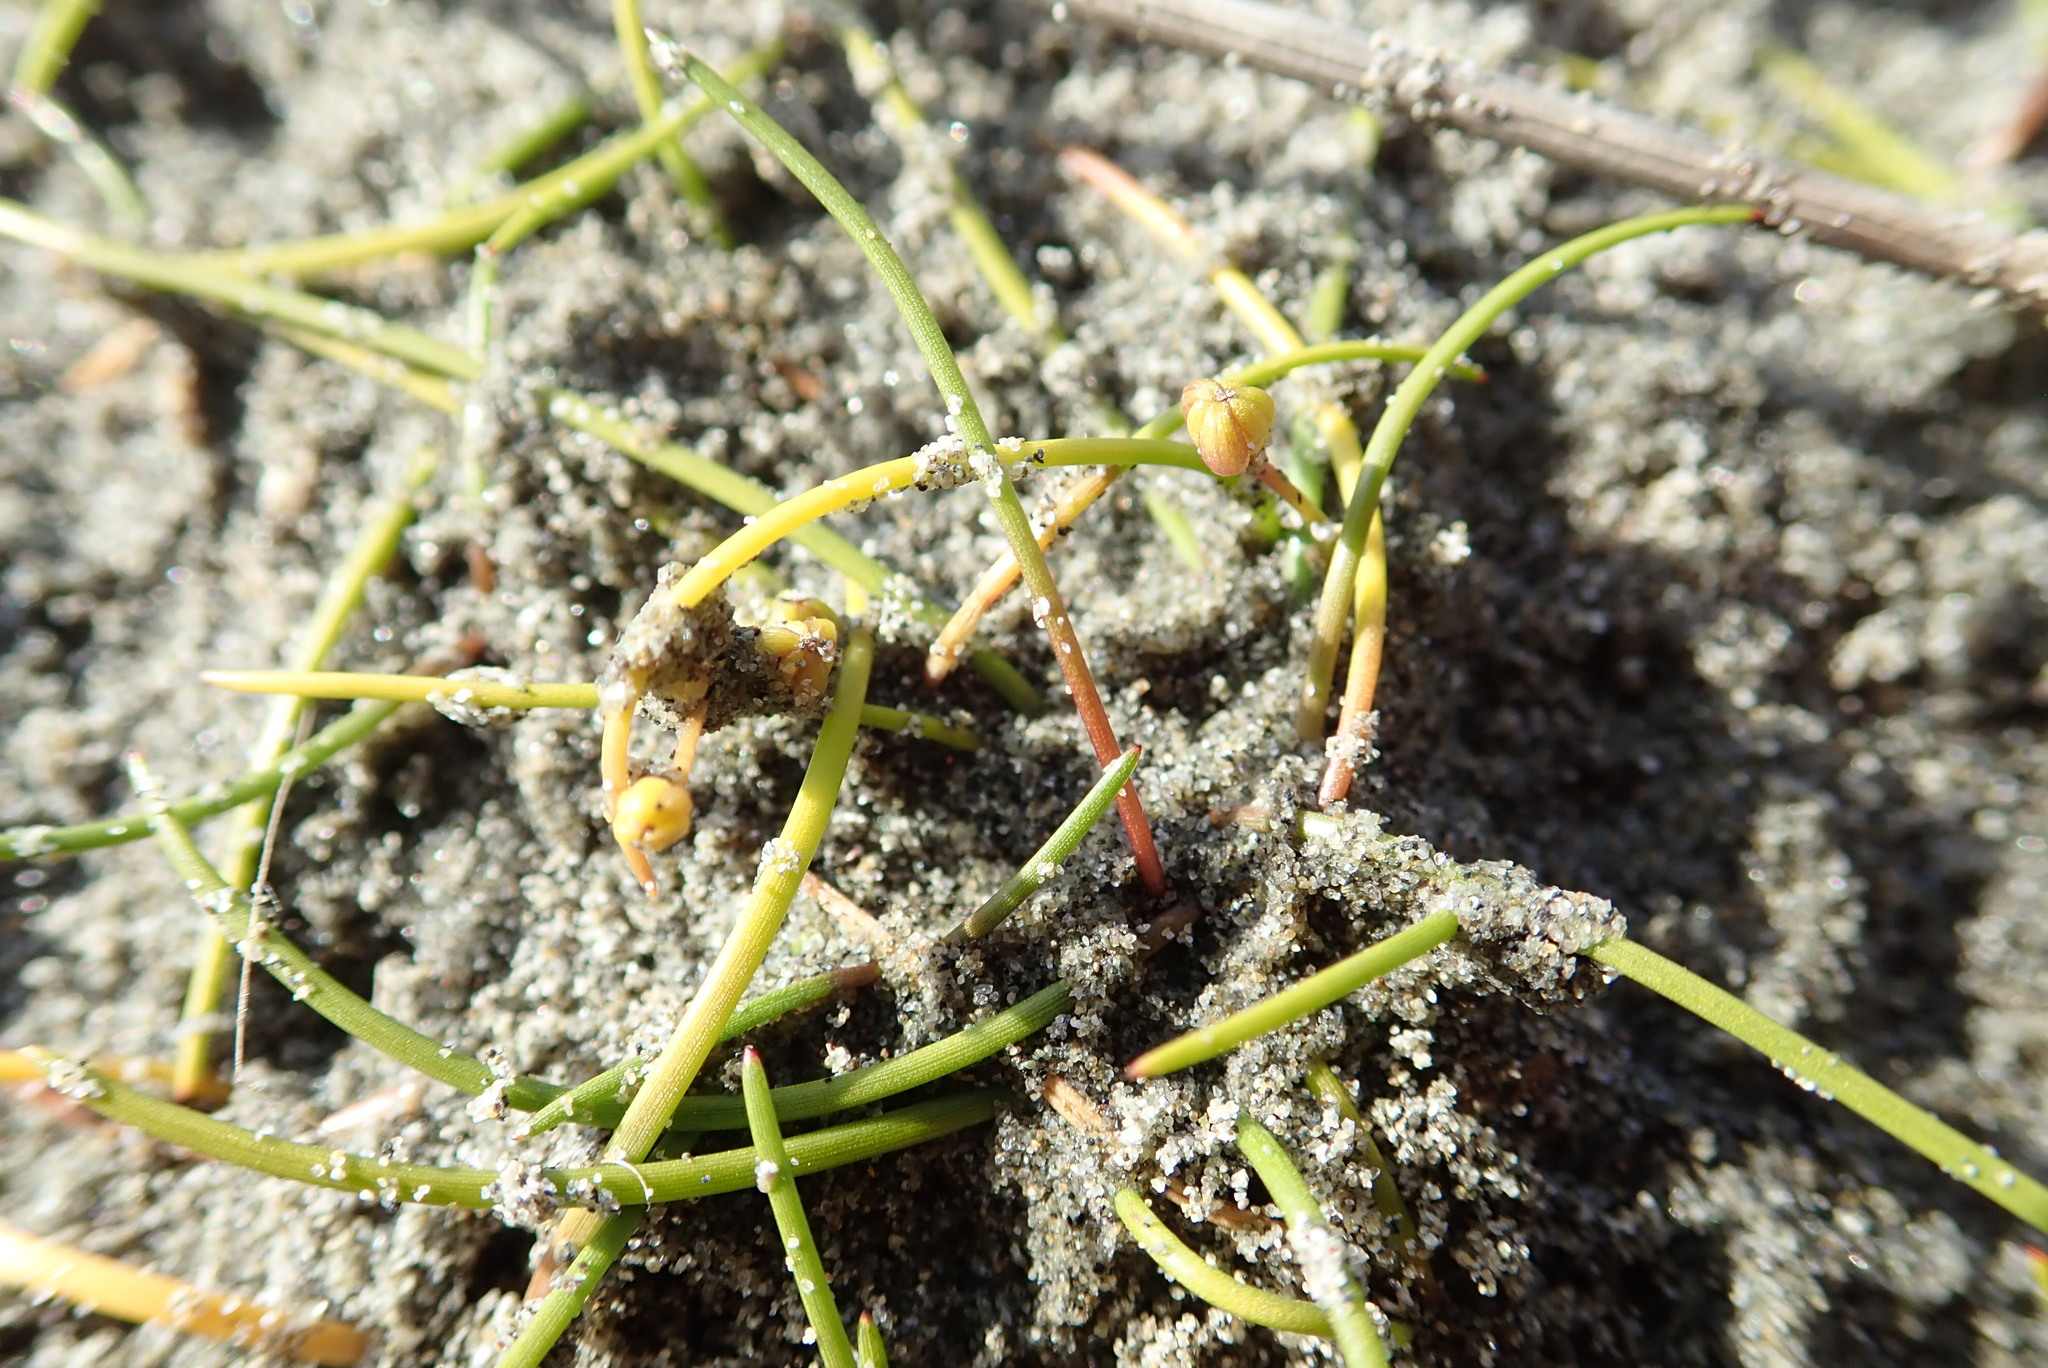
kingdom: Plantae
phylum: Tracheophyta
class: Liliopsida
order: Alismatales
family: Juncaginaceae
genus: Triglochin
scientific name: Triglochin striata
